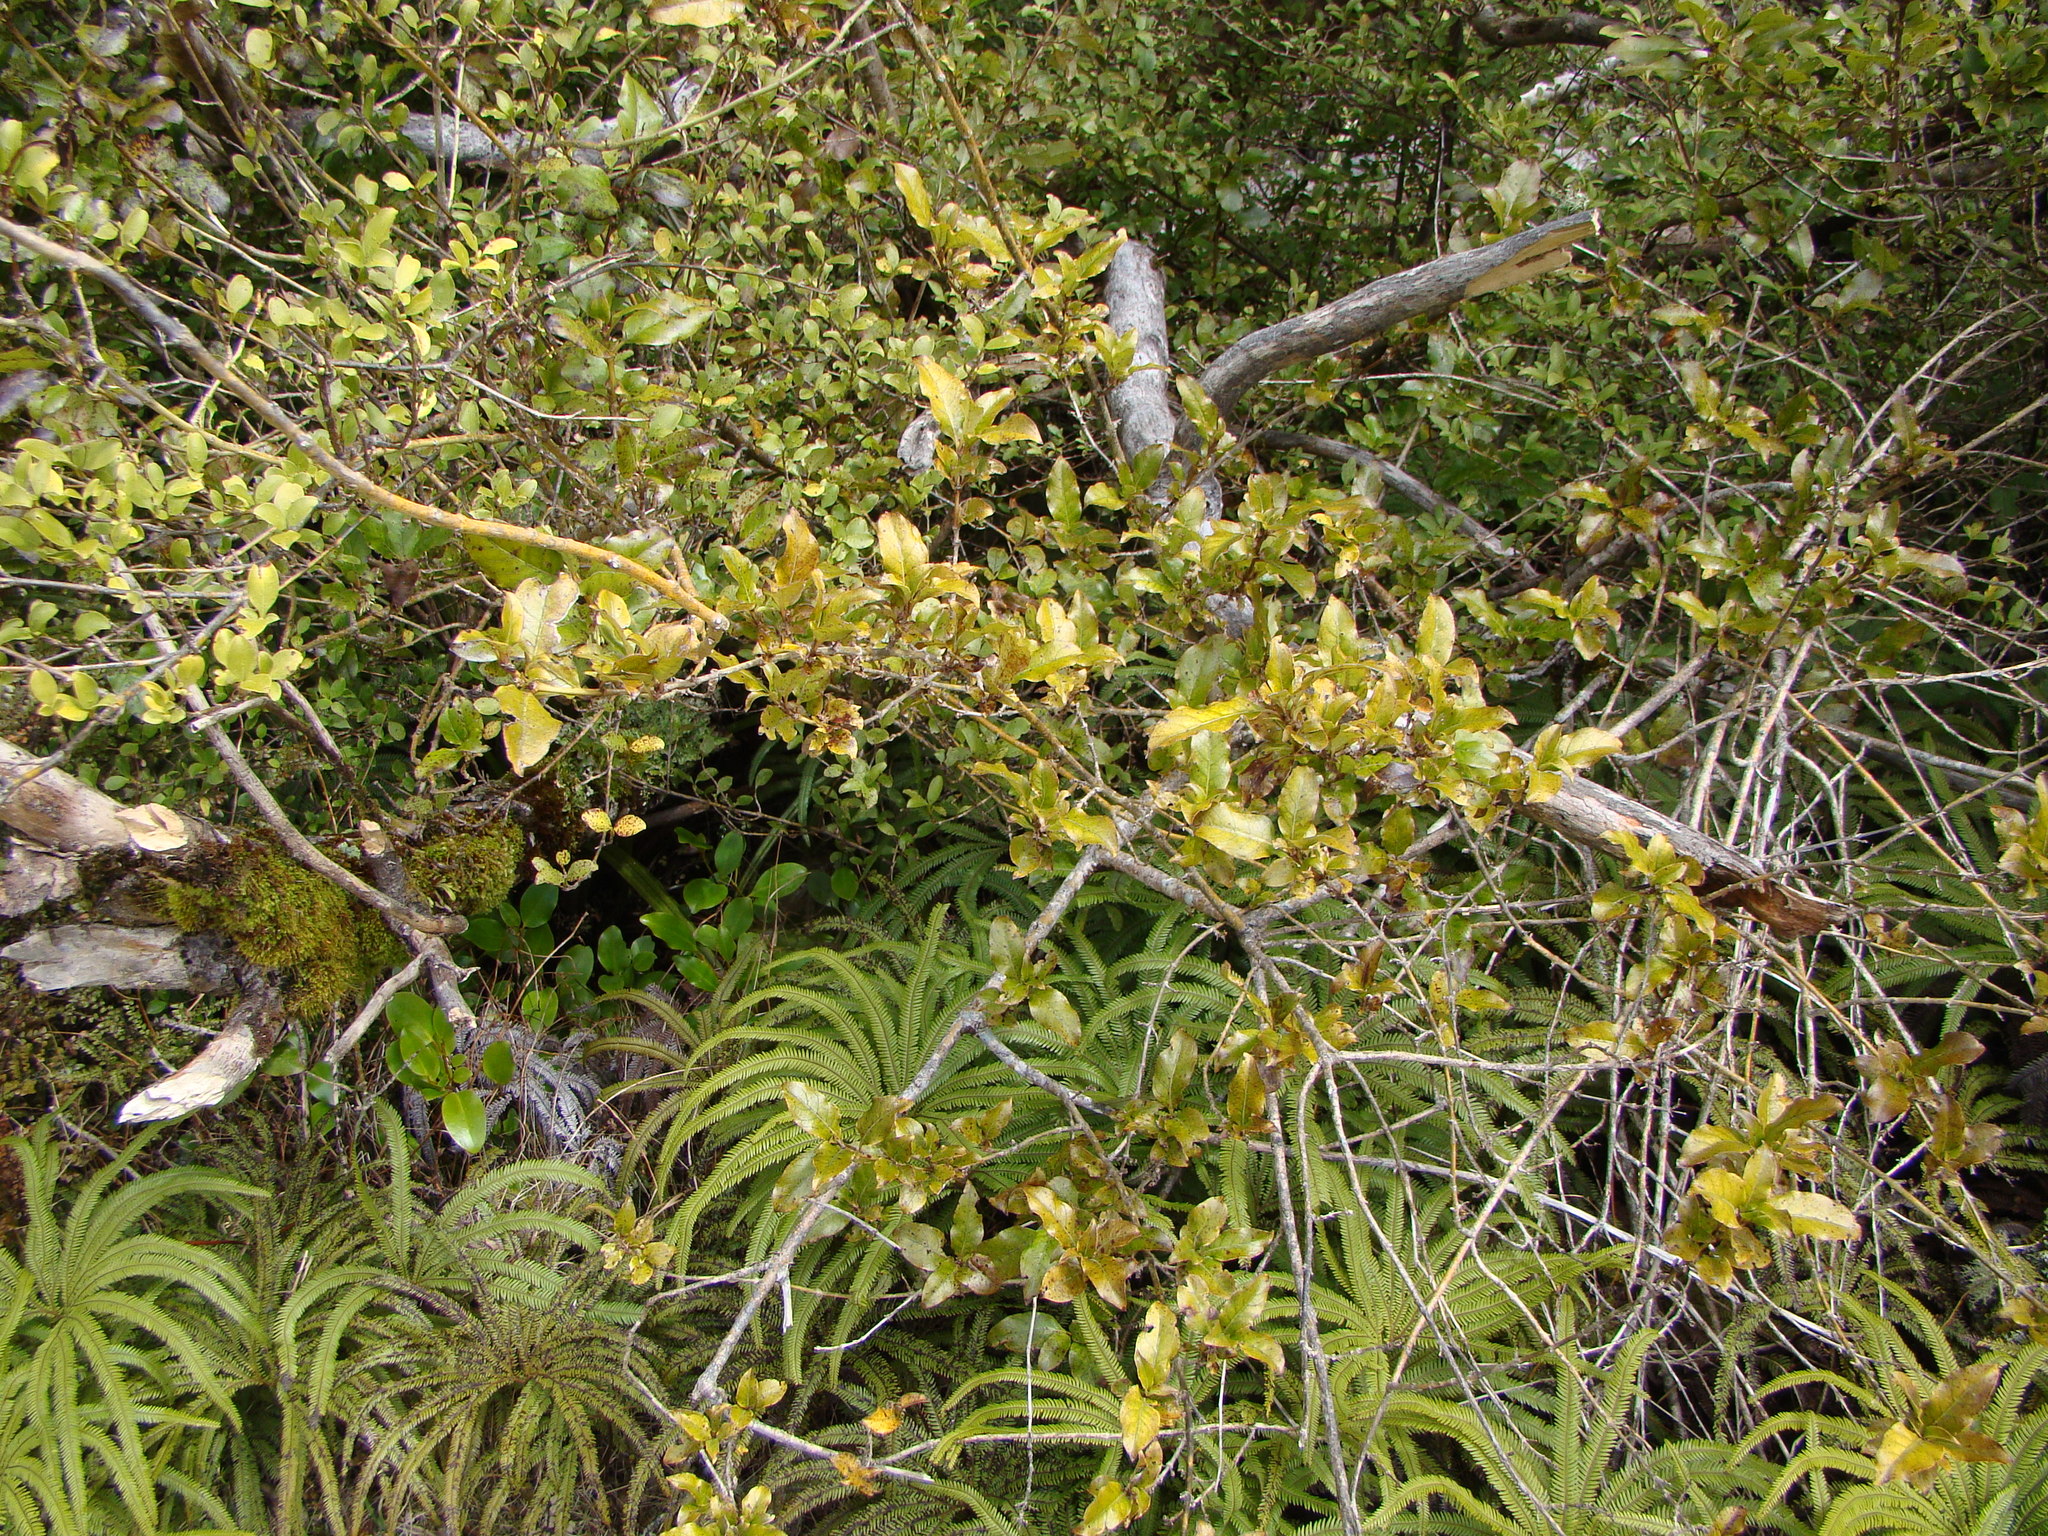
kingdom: Plantae
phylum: Tracheophyta
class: Magnoliopsida
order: Gentianales
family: Rubiaceae
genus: Coprosma
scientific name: Coprosma tenuifolia
